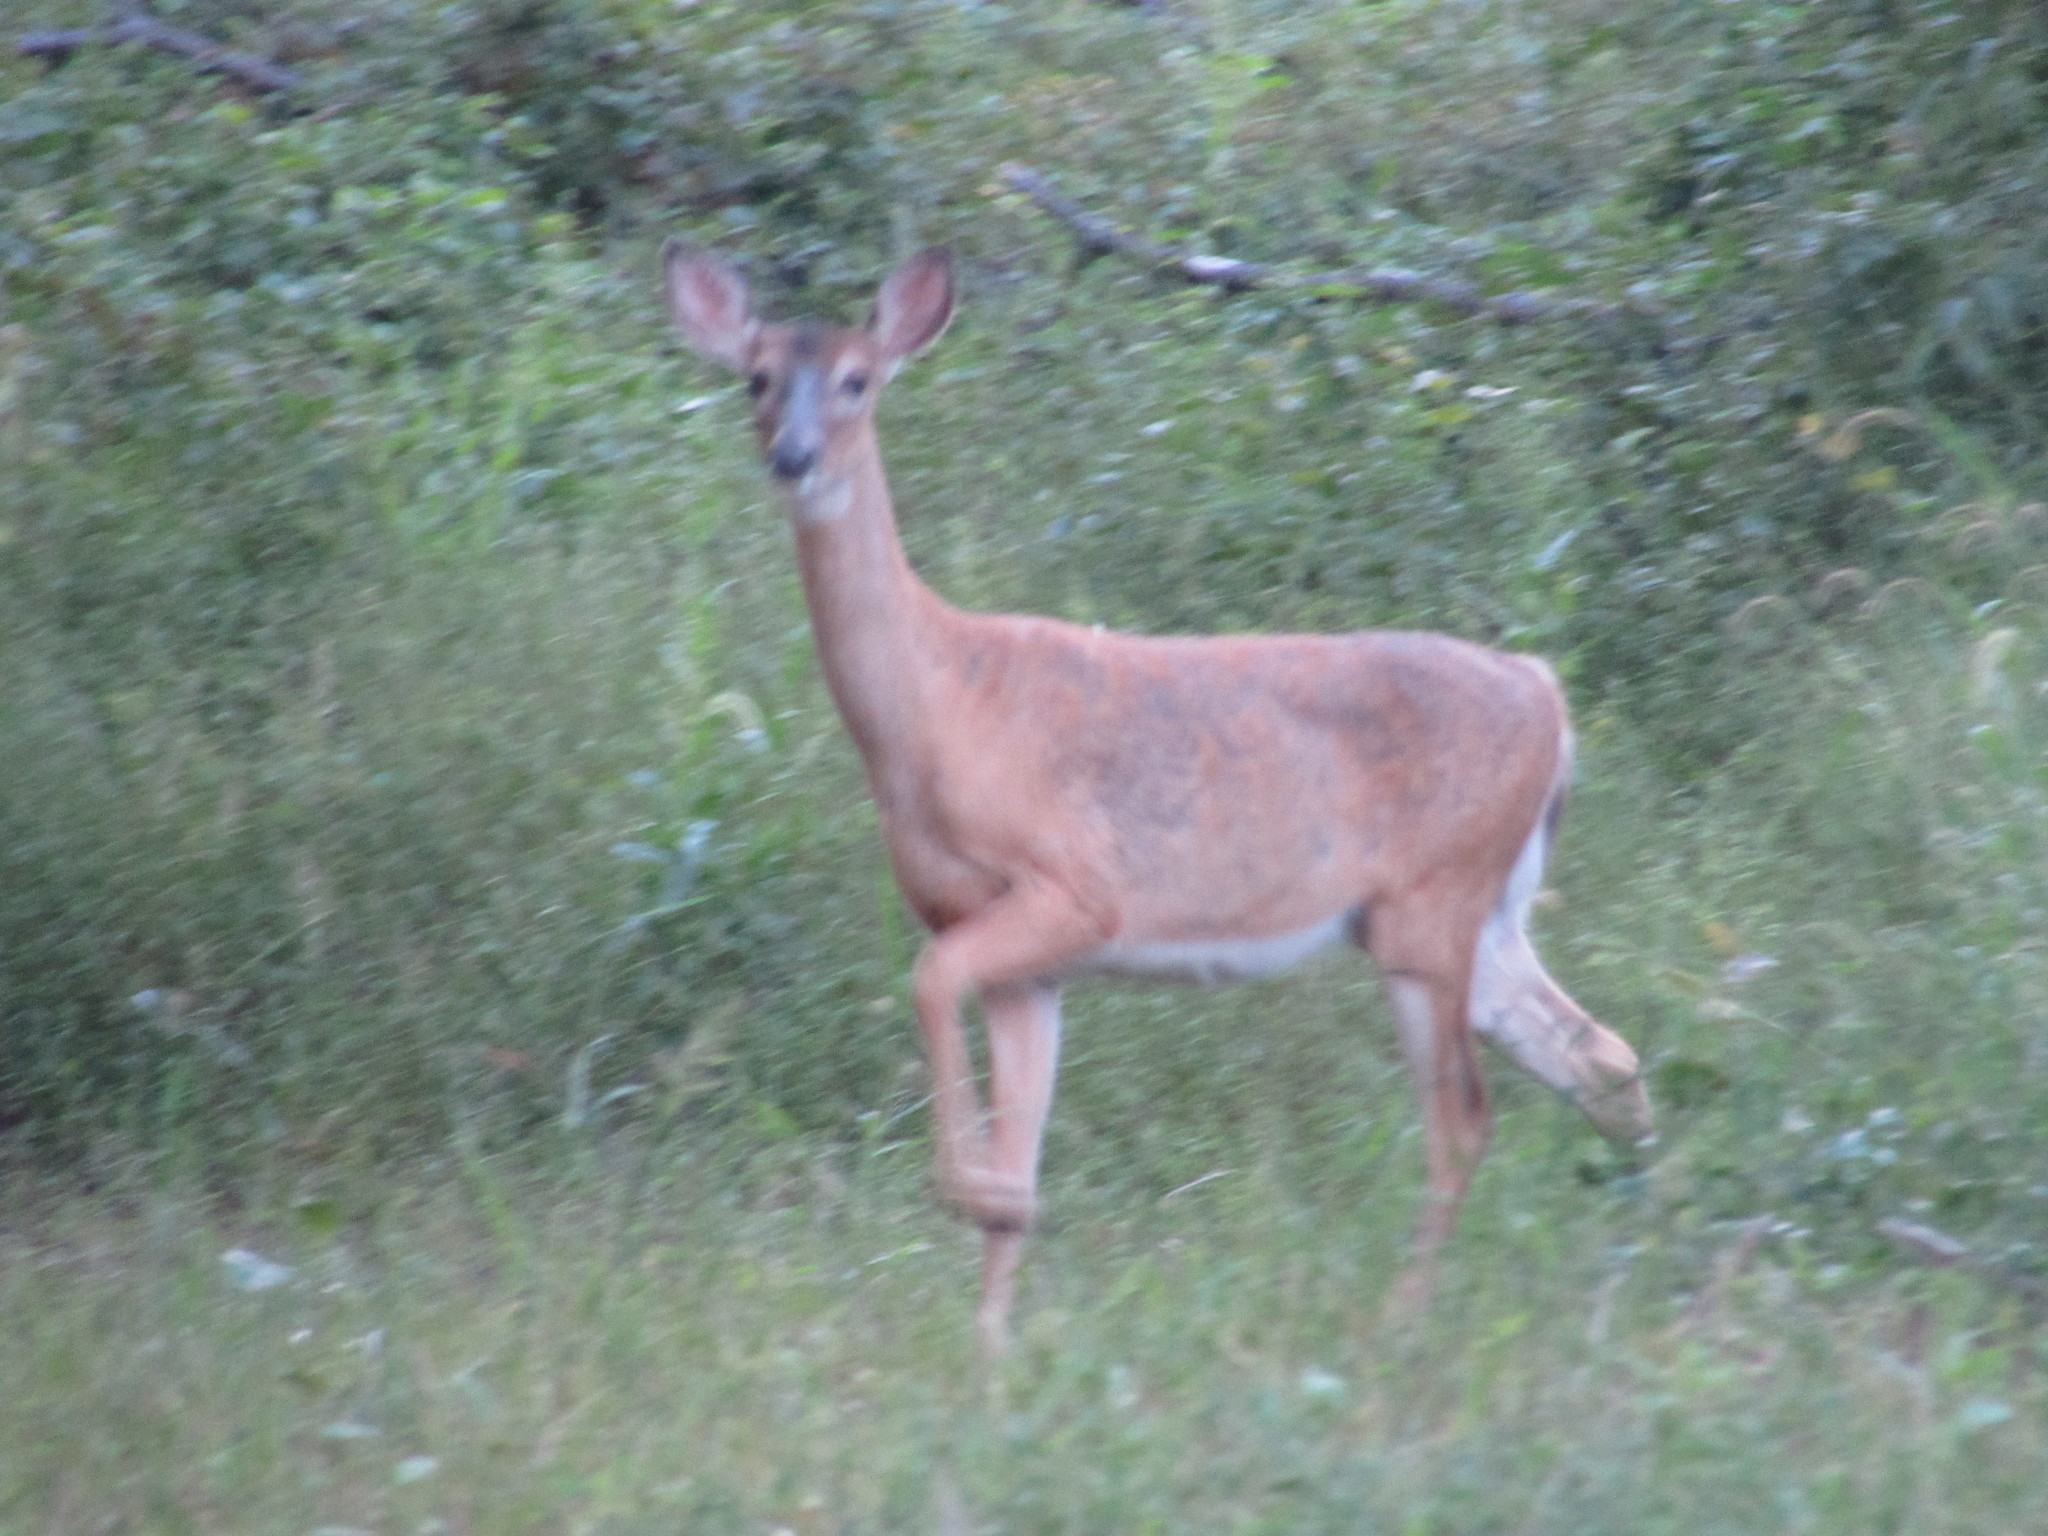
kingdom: Animalia
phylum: Chordata
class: Mammalia
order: Artiodactyla
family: Cervidae
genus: Odocoileus
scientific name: Odocoileus virginianus
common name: White-tailed deer
